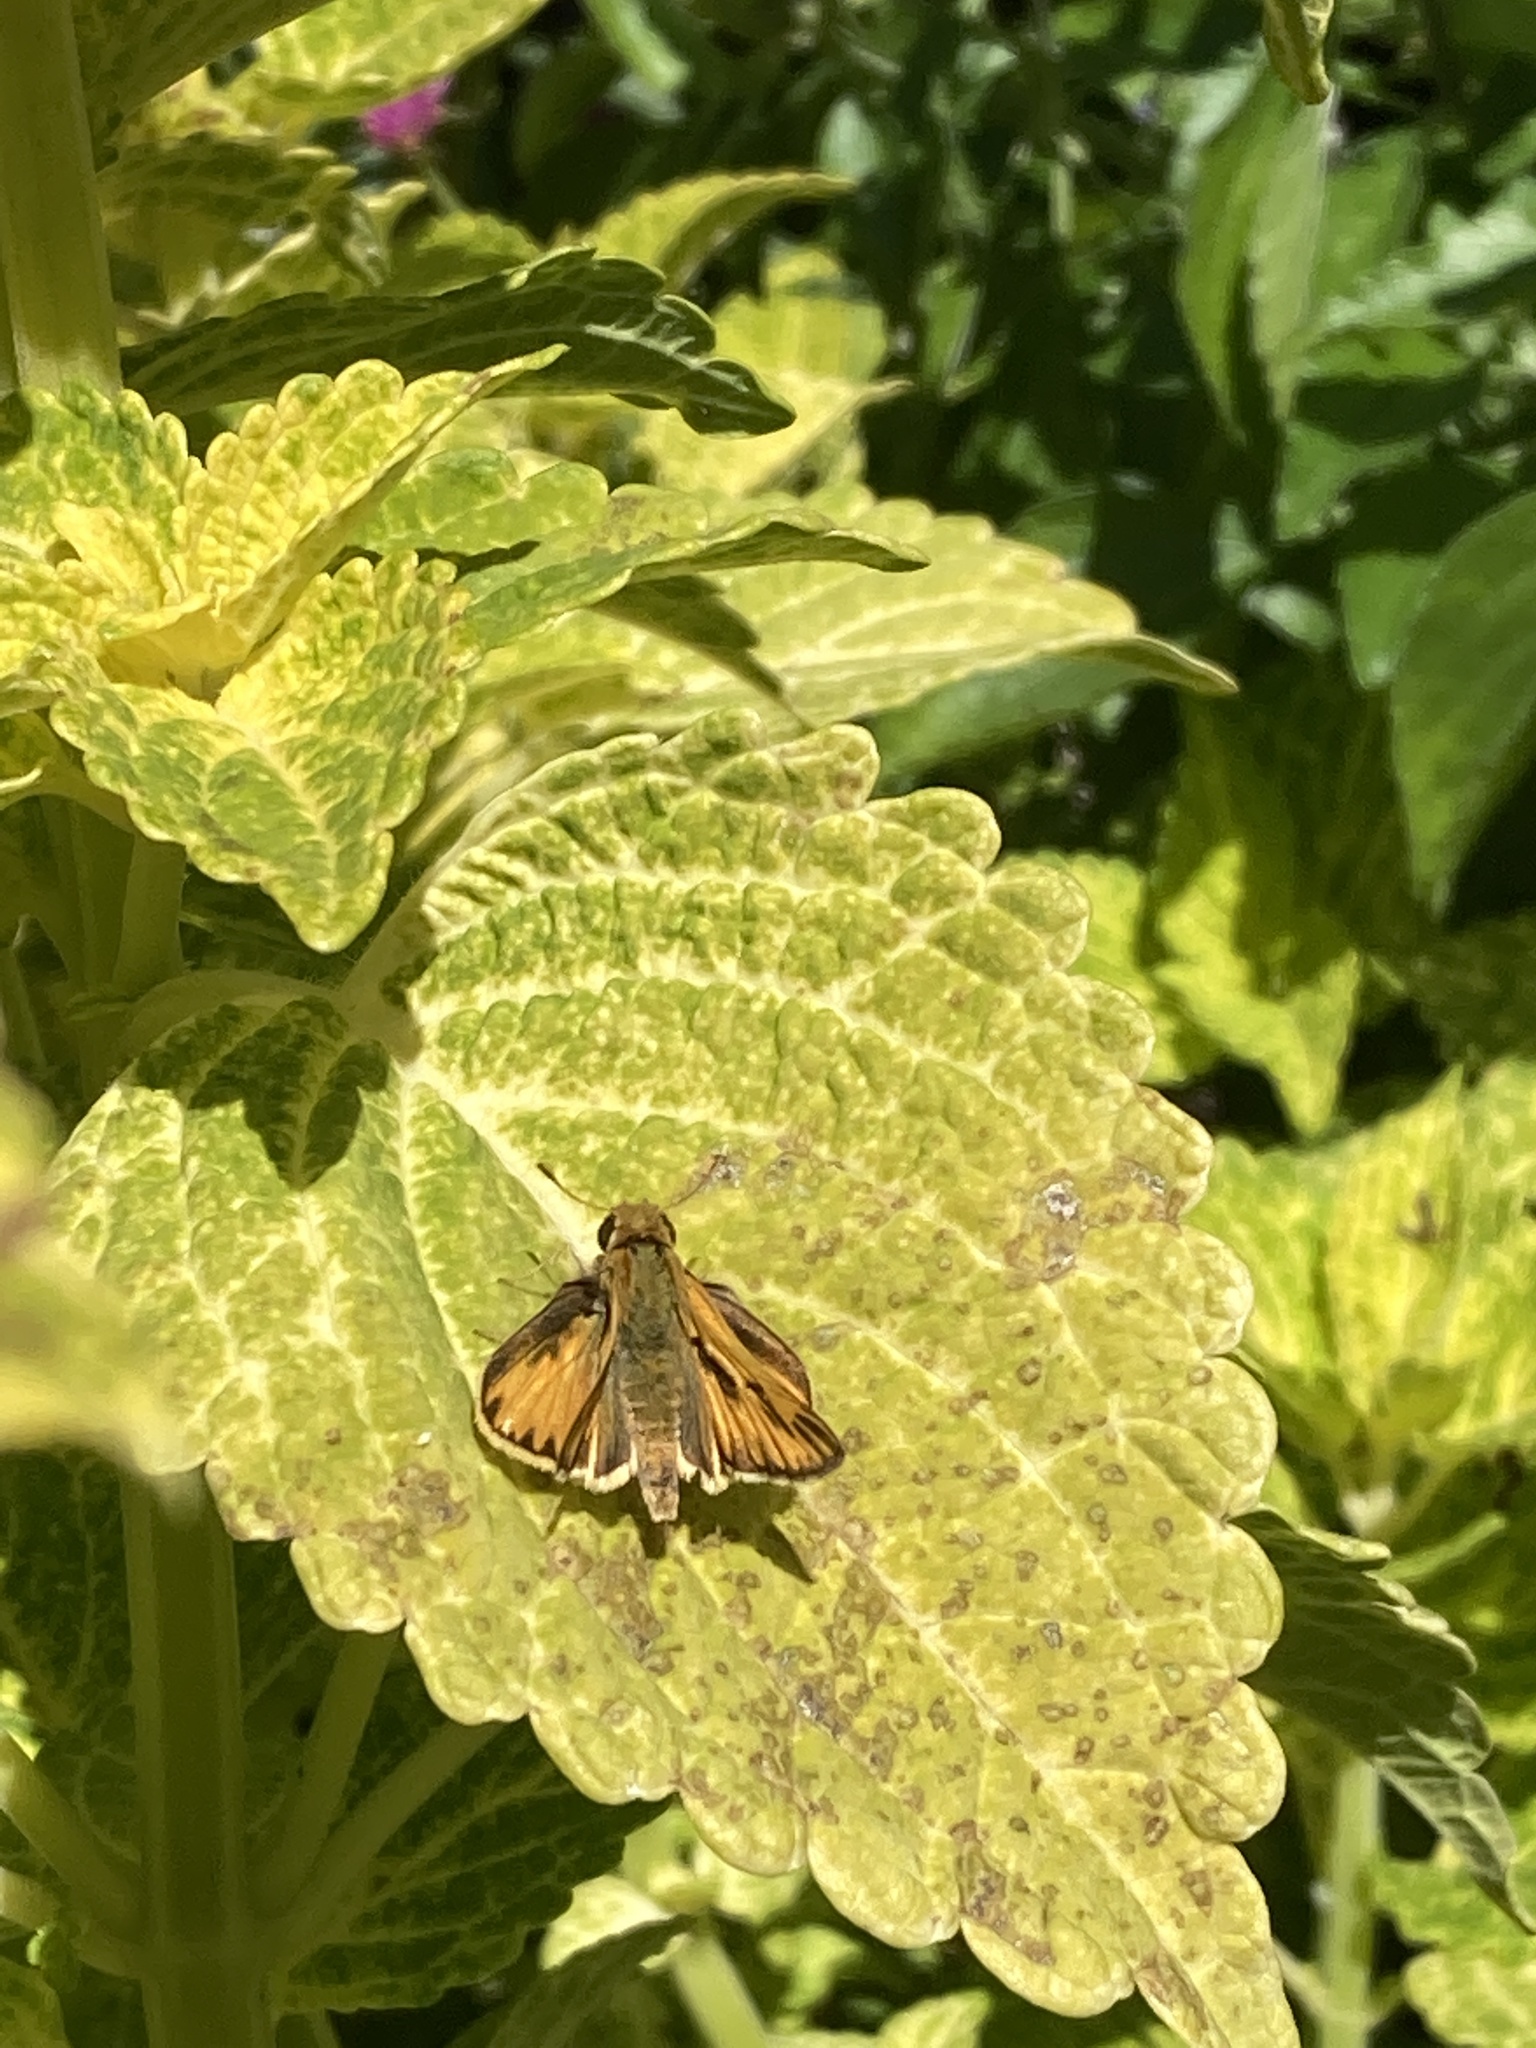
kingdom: Animalia
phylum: Arthropoda
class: Insecta
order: Lepidoptera
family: Hesperiidae
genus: Hylephila
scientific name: Hylephila phyleus
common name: Fiery skipper
